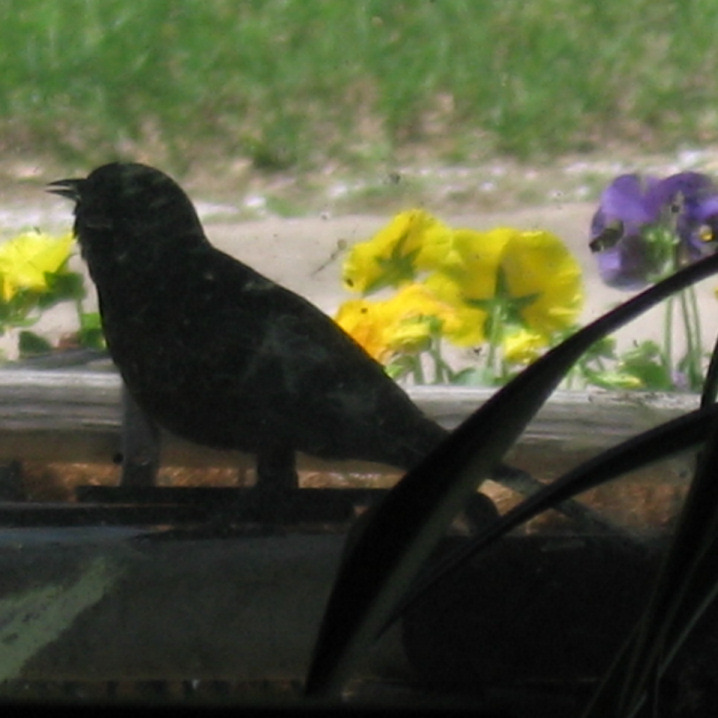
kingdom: Animalia
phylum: Chordata
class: Aves
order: Passeriformes
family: Icteridae
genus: Icterus
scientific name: Icterus spurius
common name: Orchard oriole
